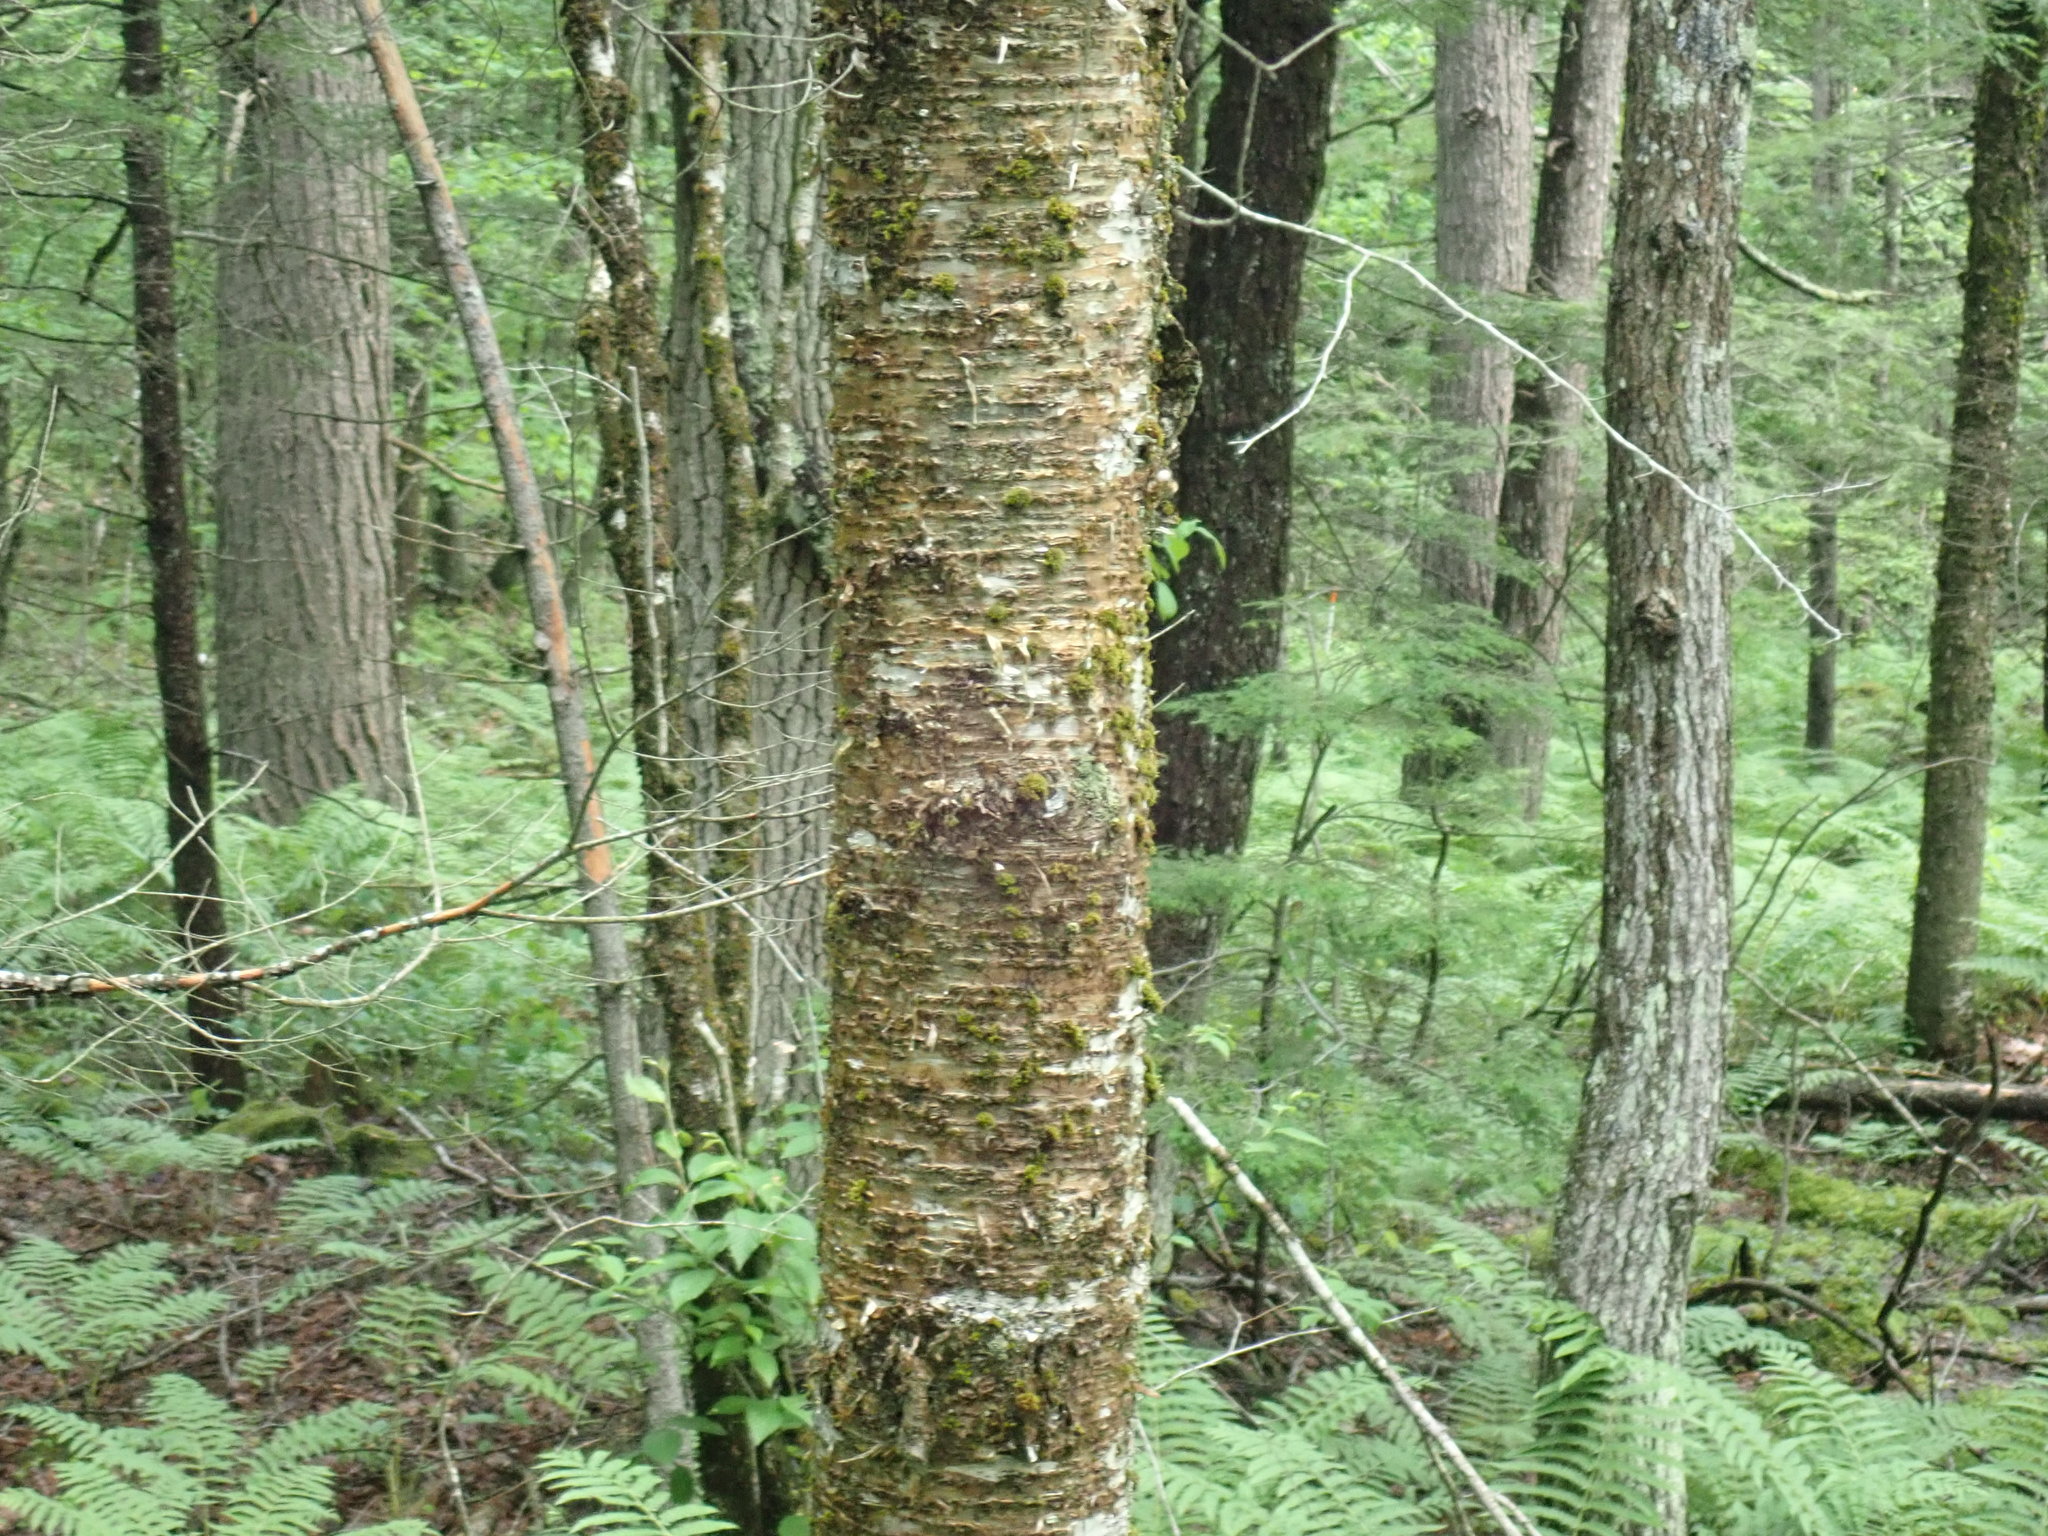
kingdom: Plantae
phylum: Tracheophyta
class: Magnoliopsida
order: Fagales
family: Betulaceae
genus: Betula
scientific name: Betula alleghaniensis
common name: Yellow birch
